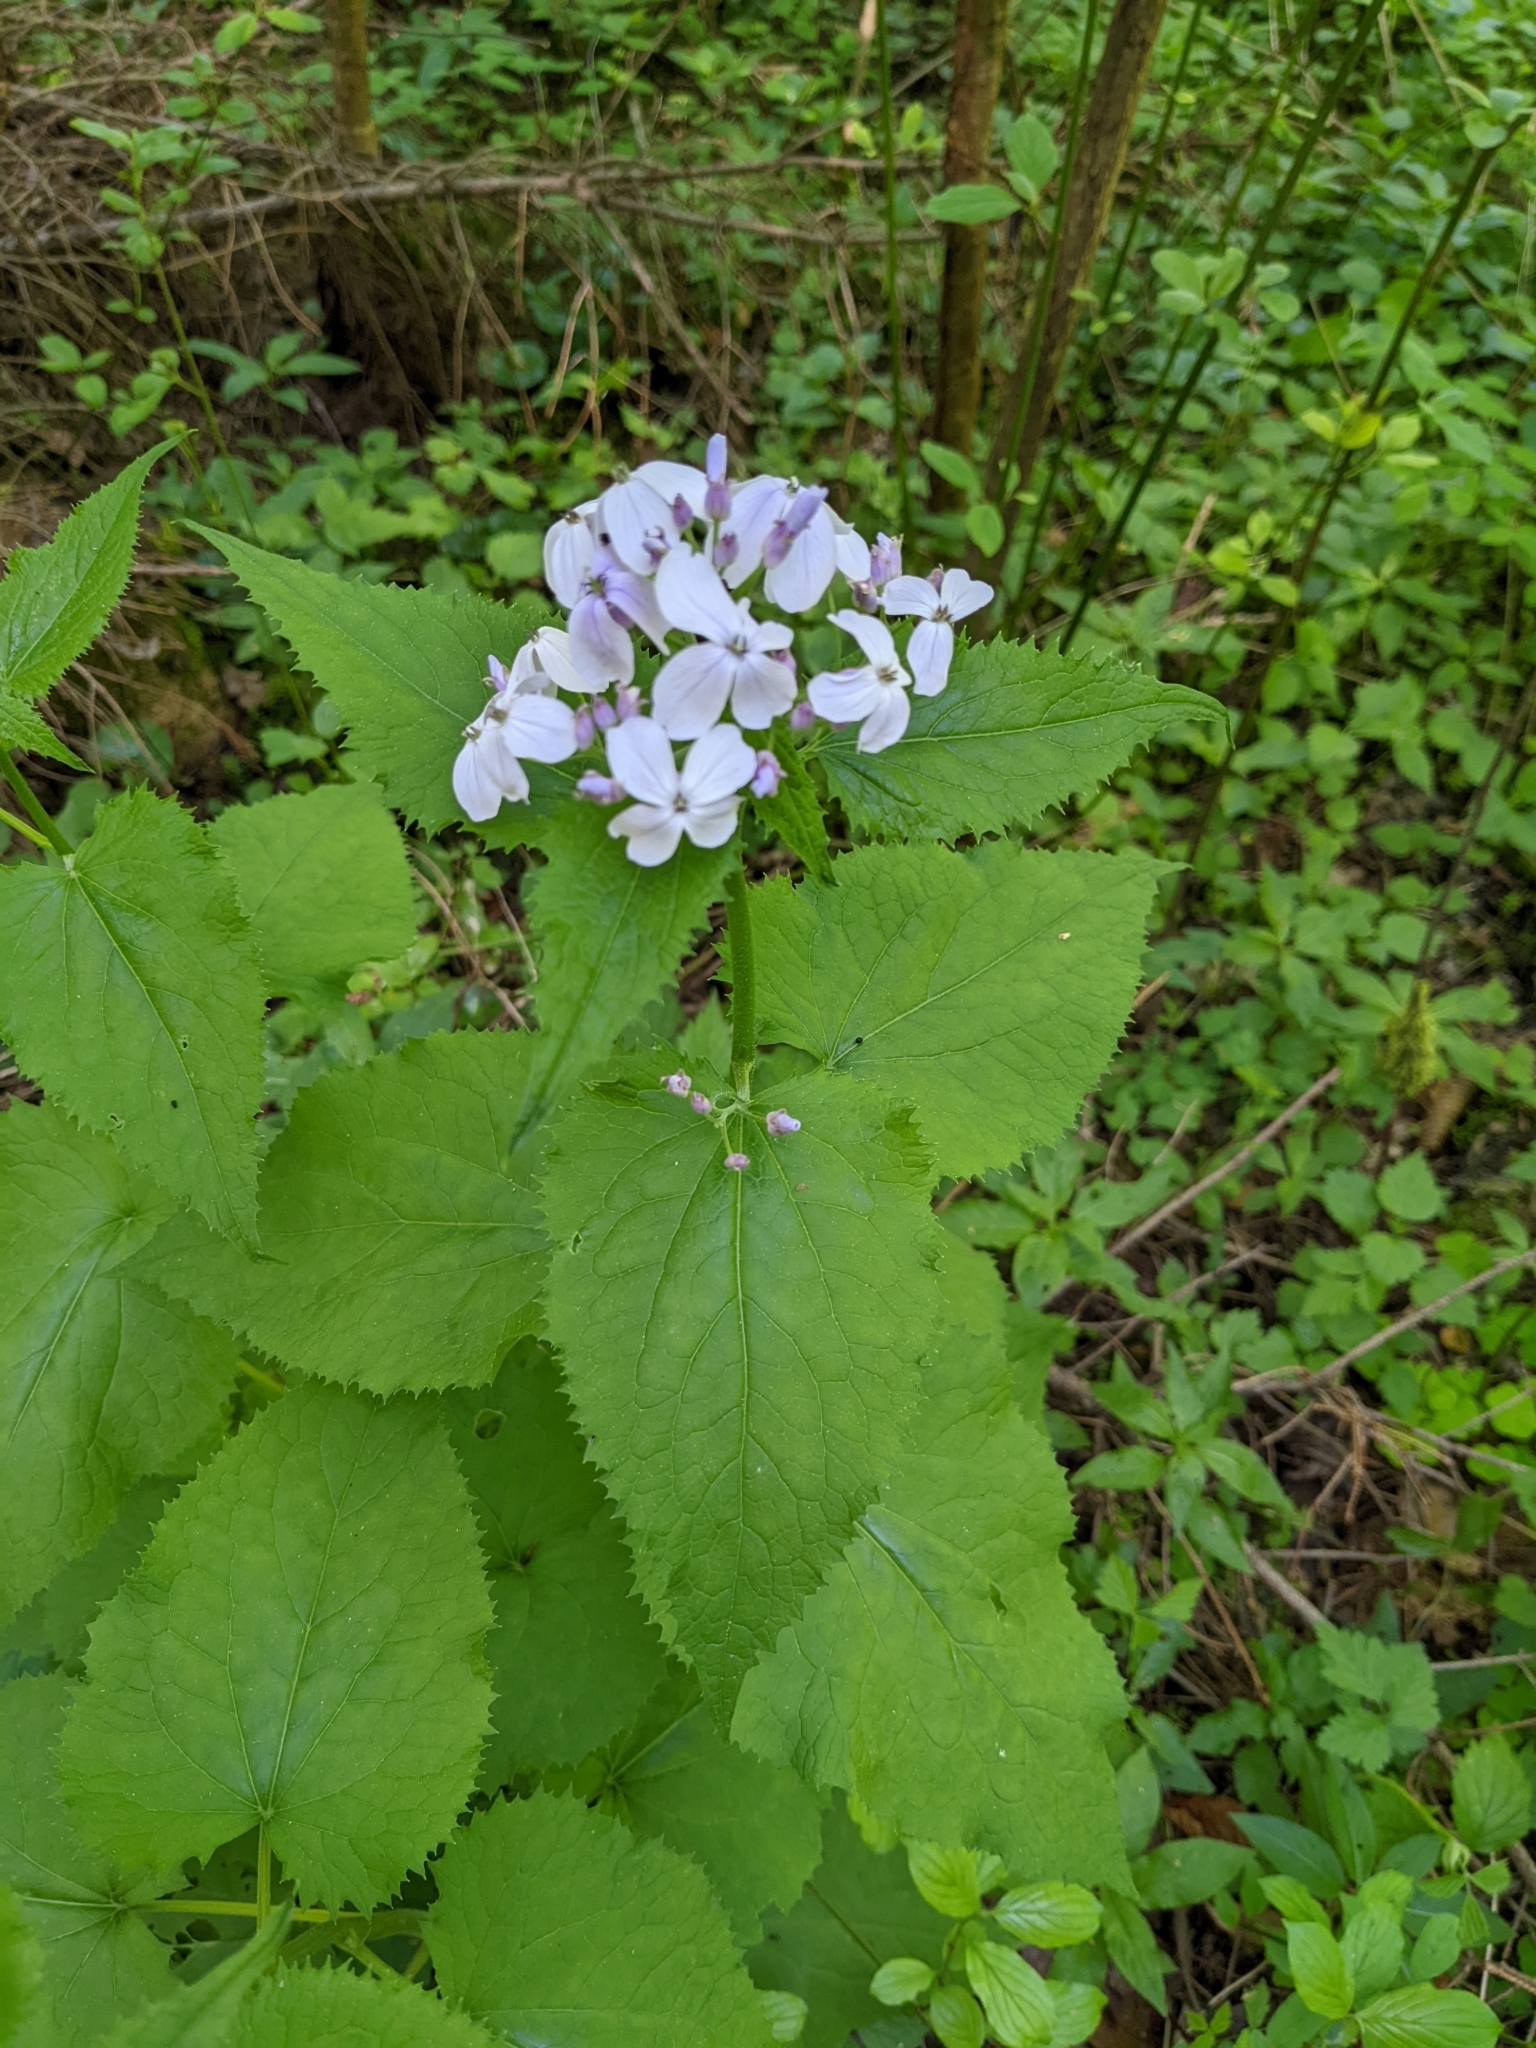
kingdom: Plantae
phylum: Tracheophyta
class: Magnoliopsida
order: Brassicales
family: Brassicaceae
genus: Lunaria
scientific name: Lunaria rediviva
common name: Perennial honesty
